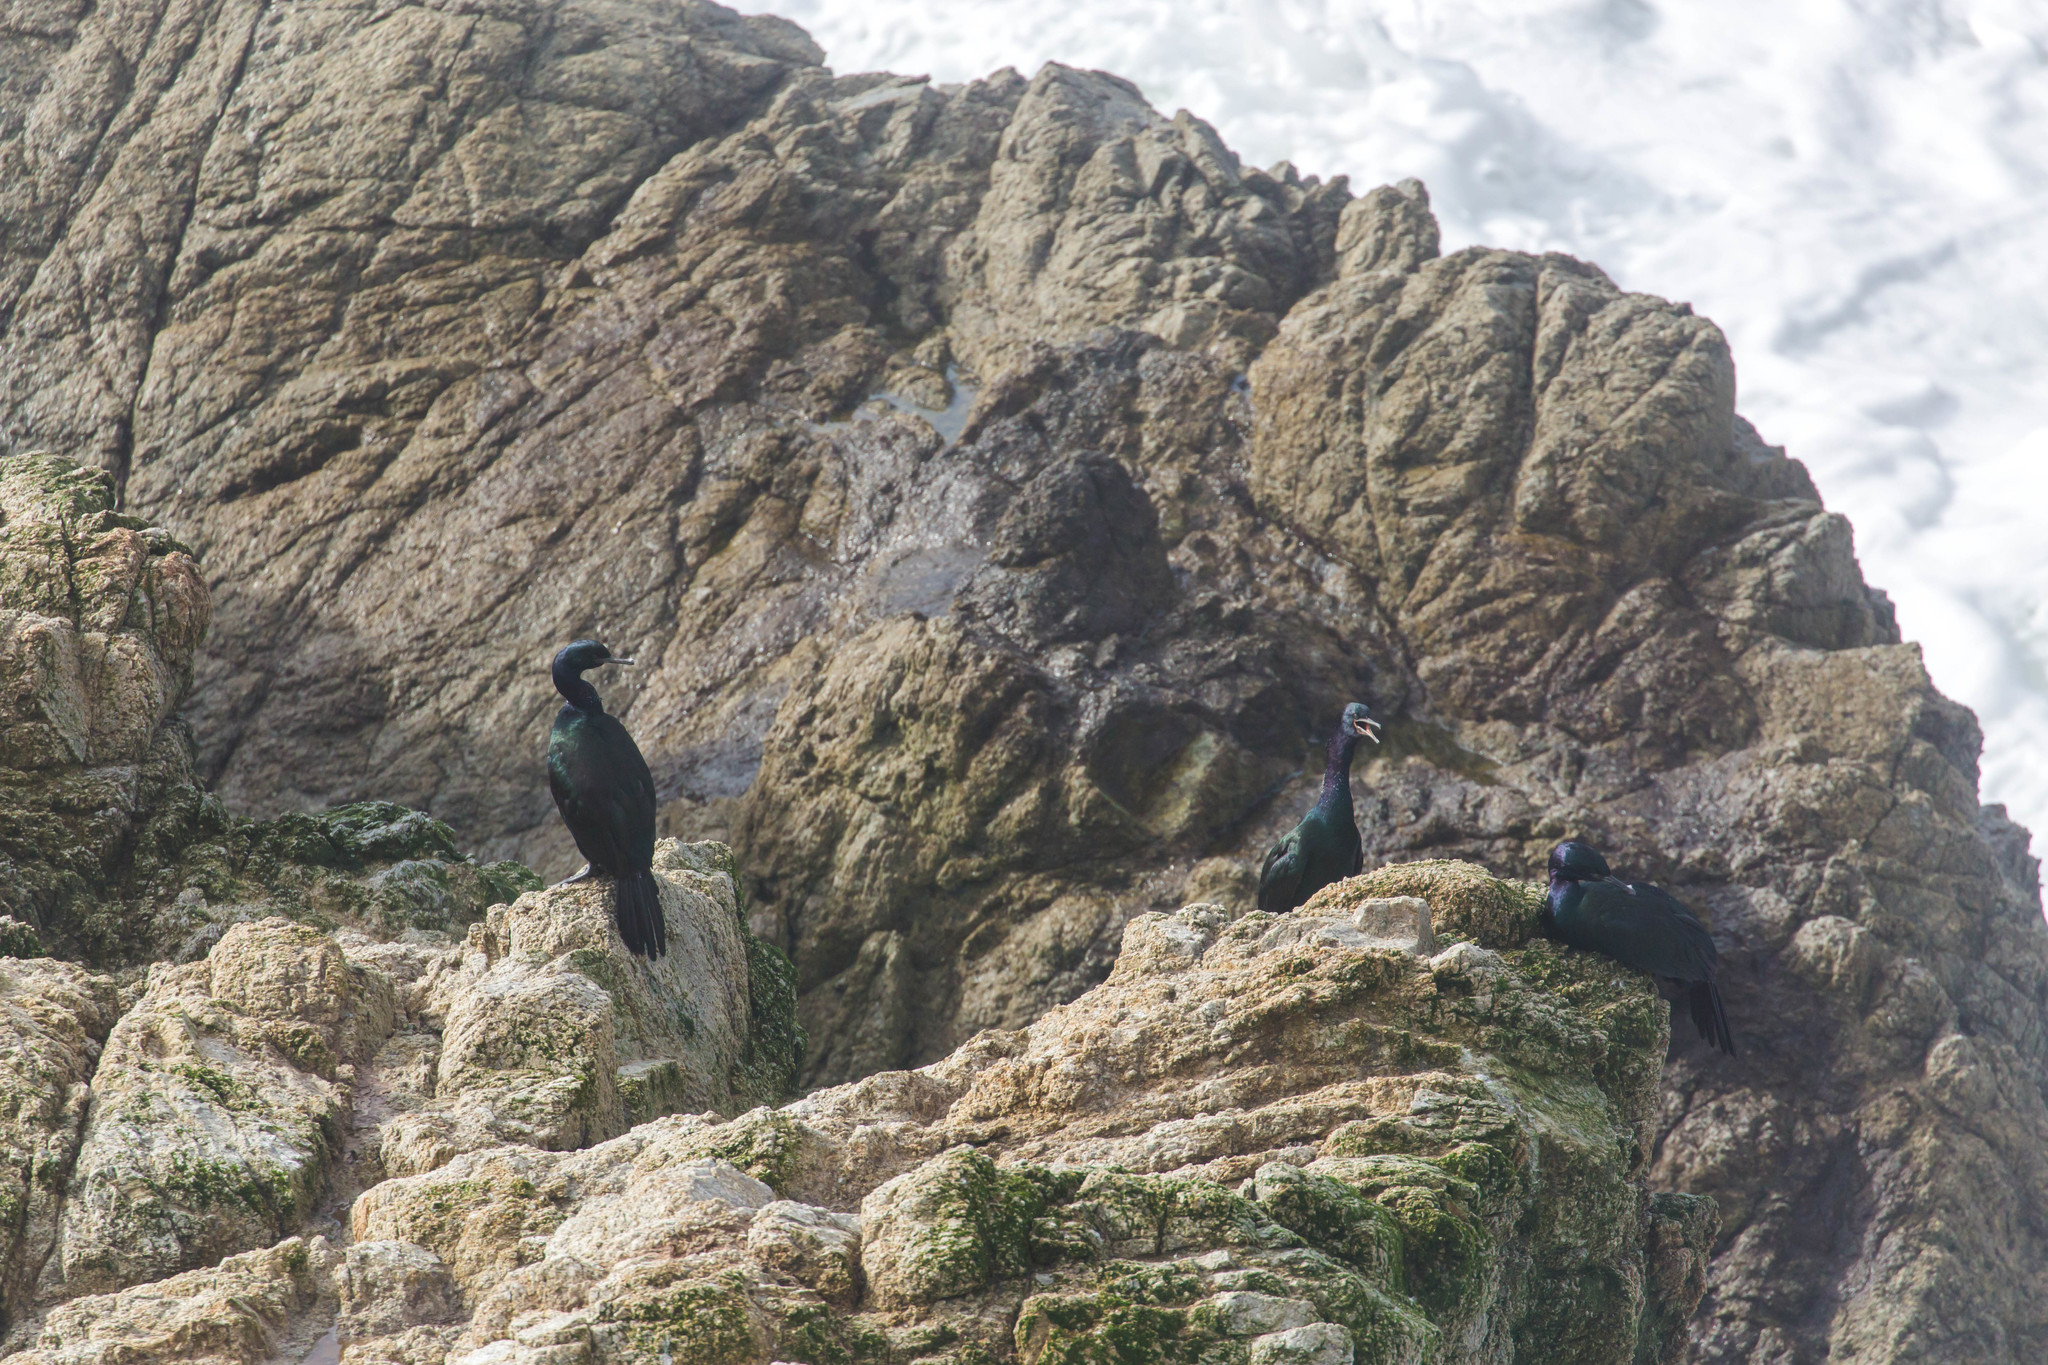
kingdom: Animalia
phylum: Chordata
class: Aves
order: Suliformes
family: Phalacrocoracidae
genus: Phalacrocorax
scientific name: Phalacrocorax pelagicus
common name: Pelagic cormorant
